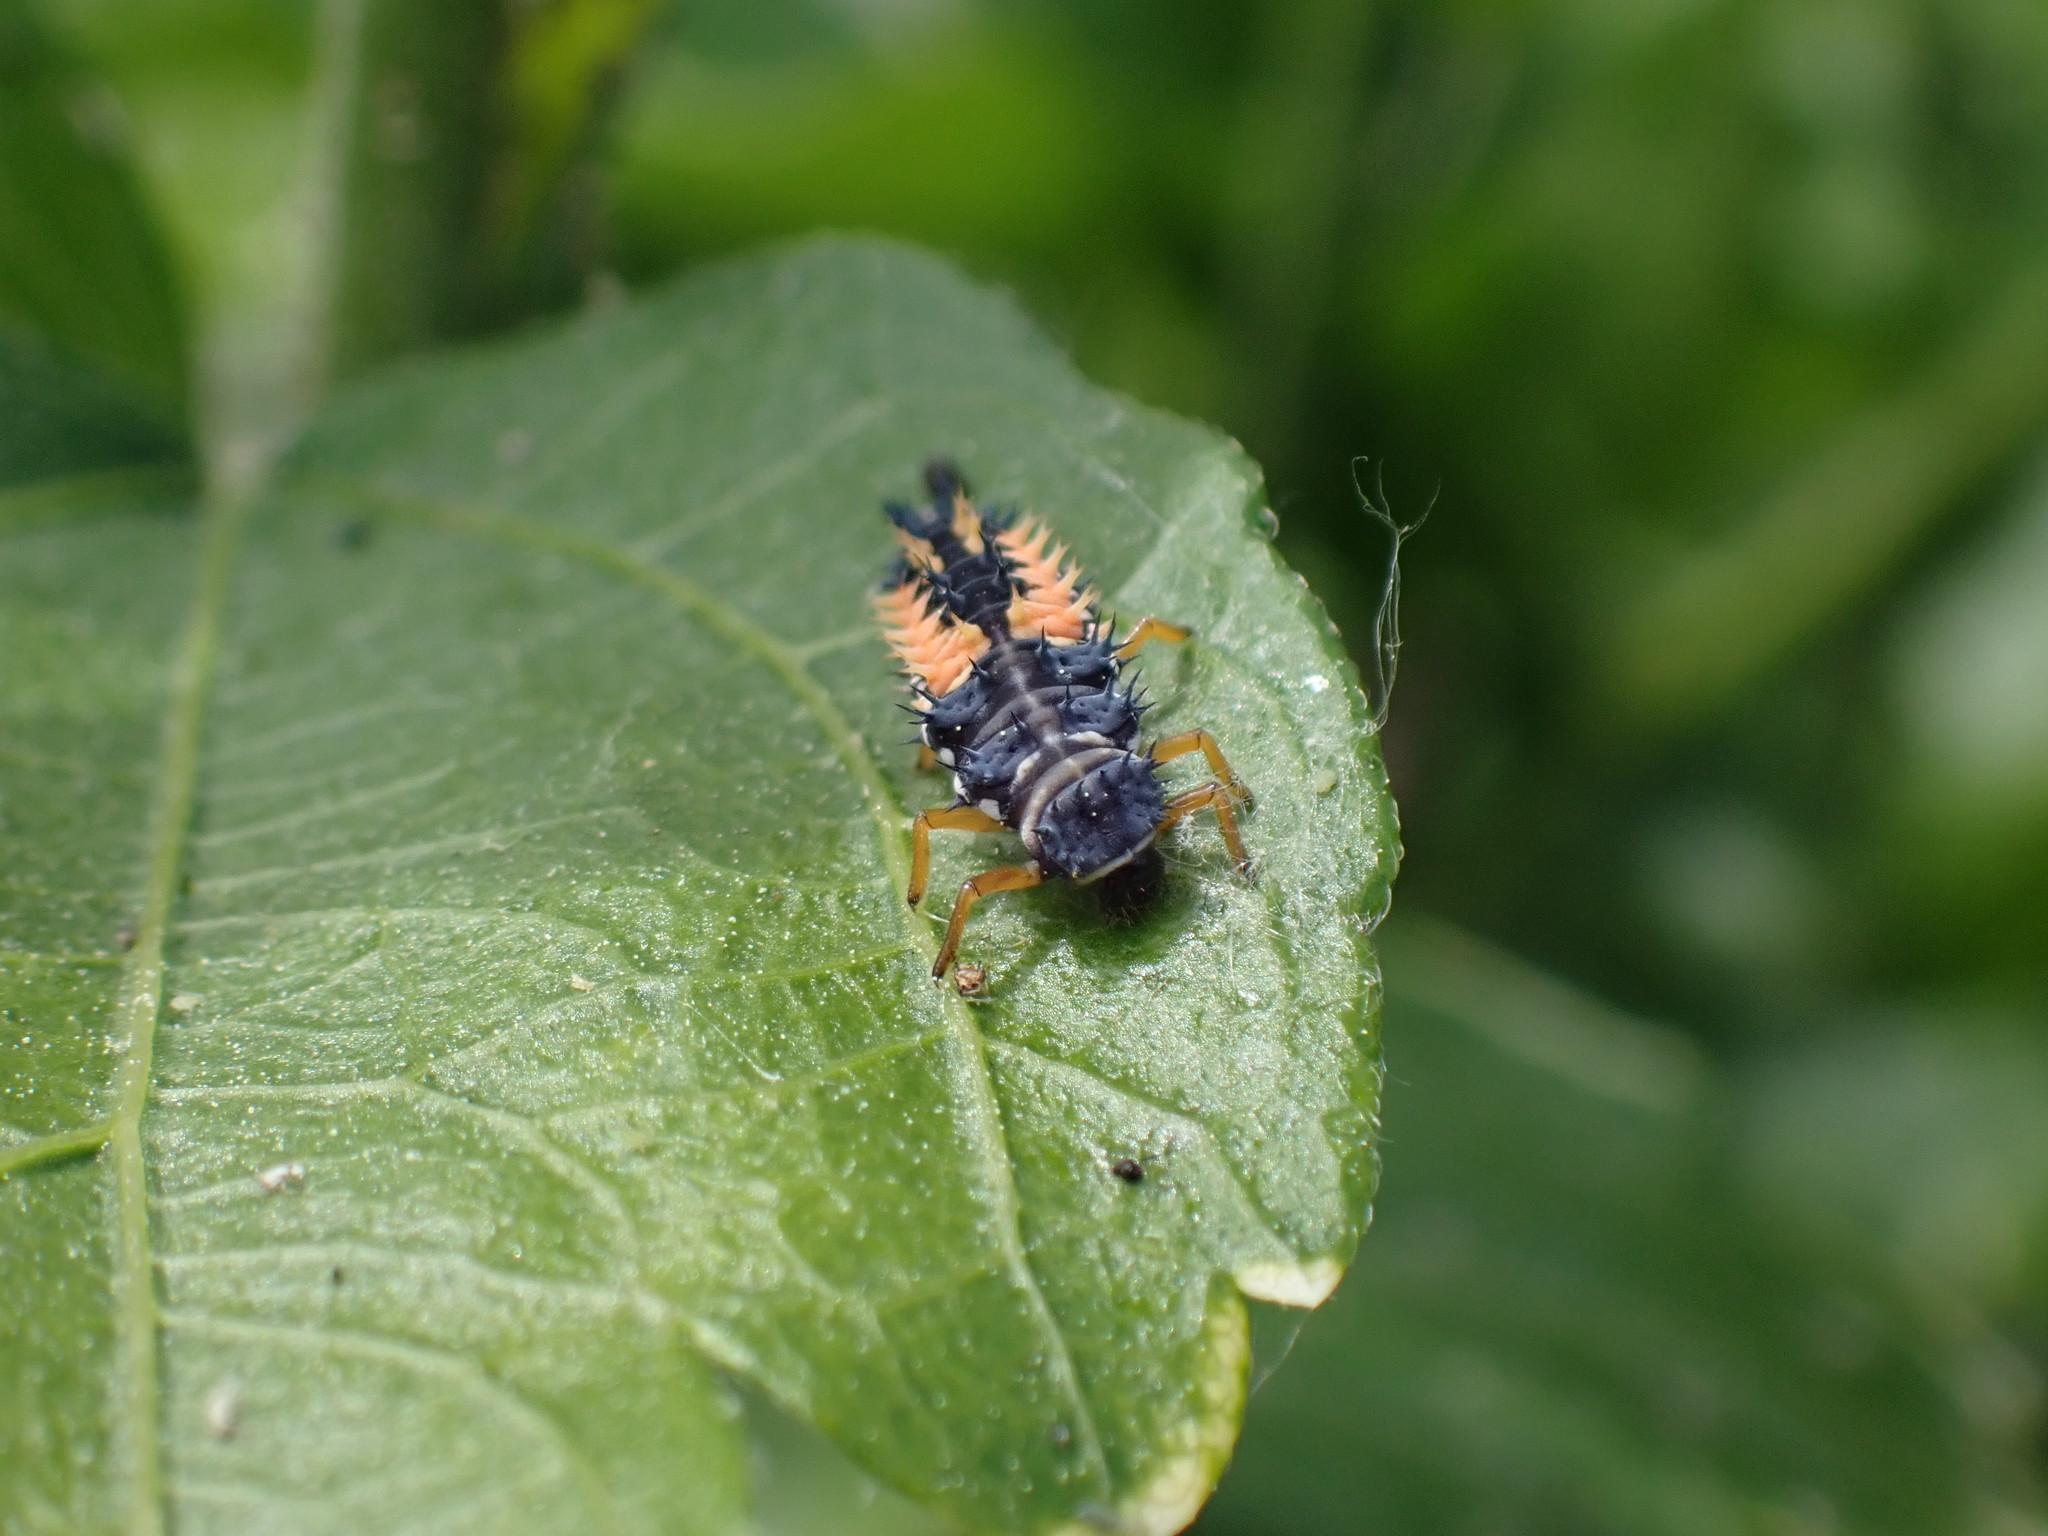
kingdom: Animalia
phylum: Arthropoda
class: Insecta
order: Coleoptera
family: Coccinellidae
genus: Harmonia
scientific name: Harmonia axyridis
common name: Harlequin ladybird
